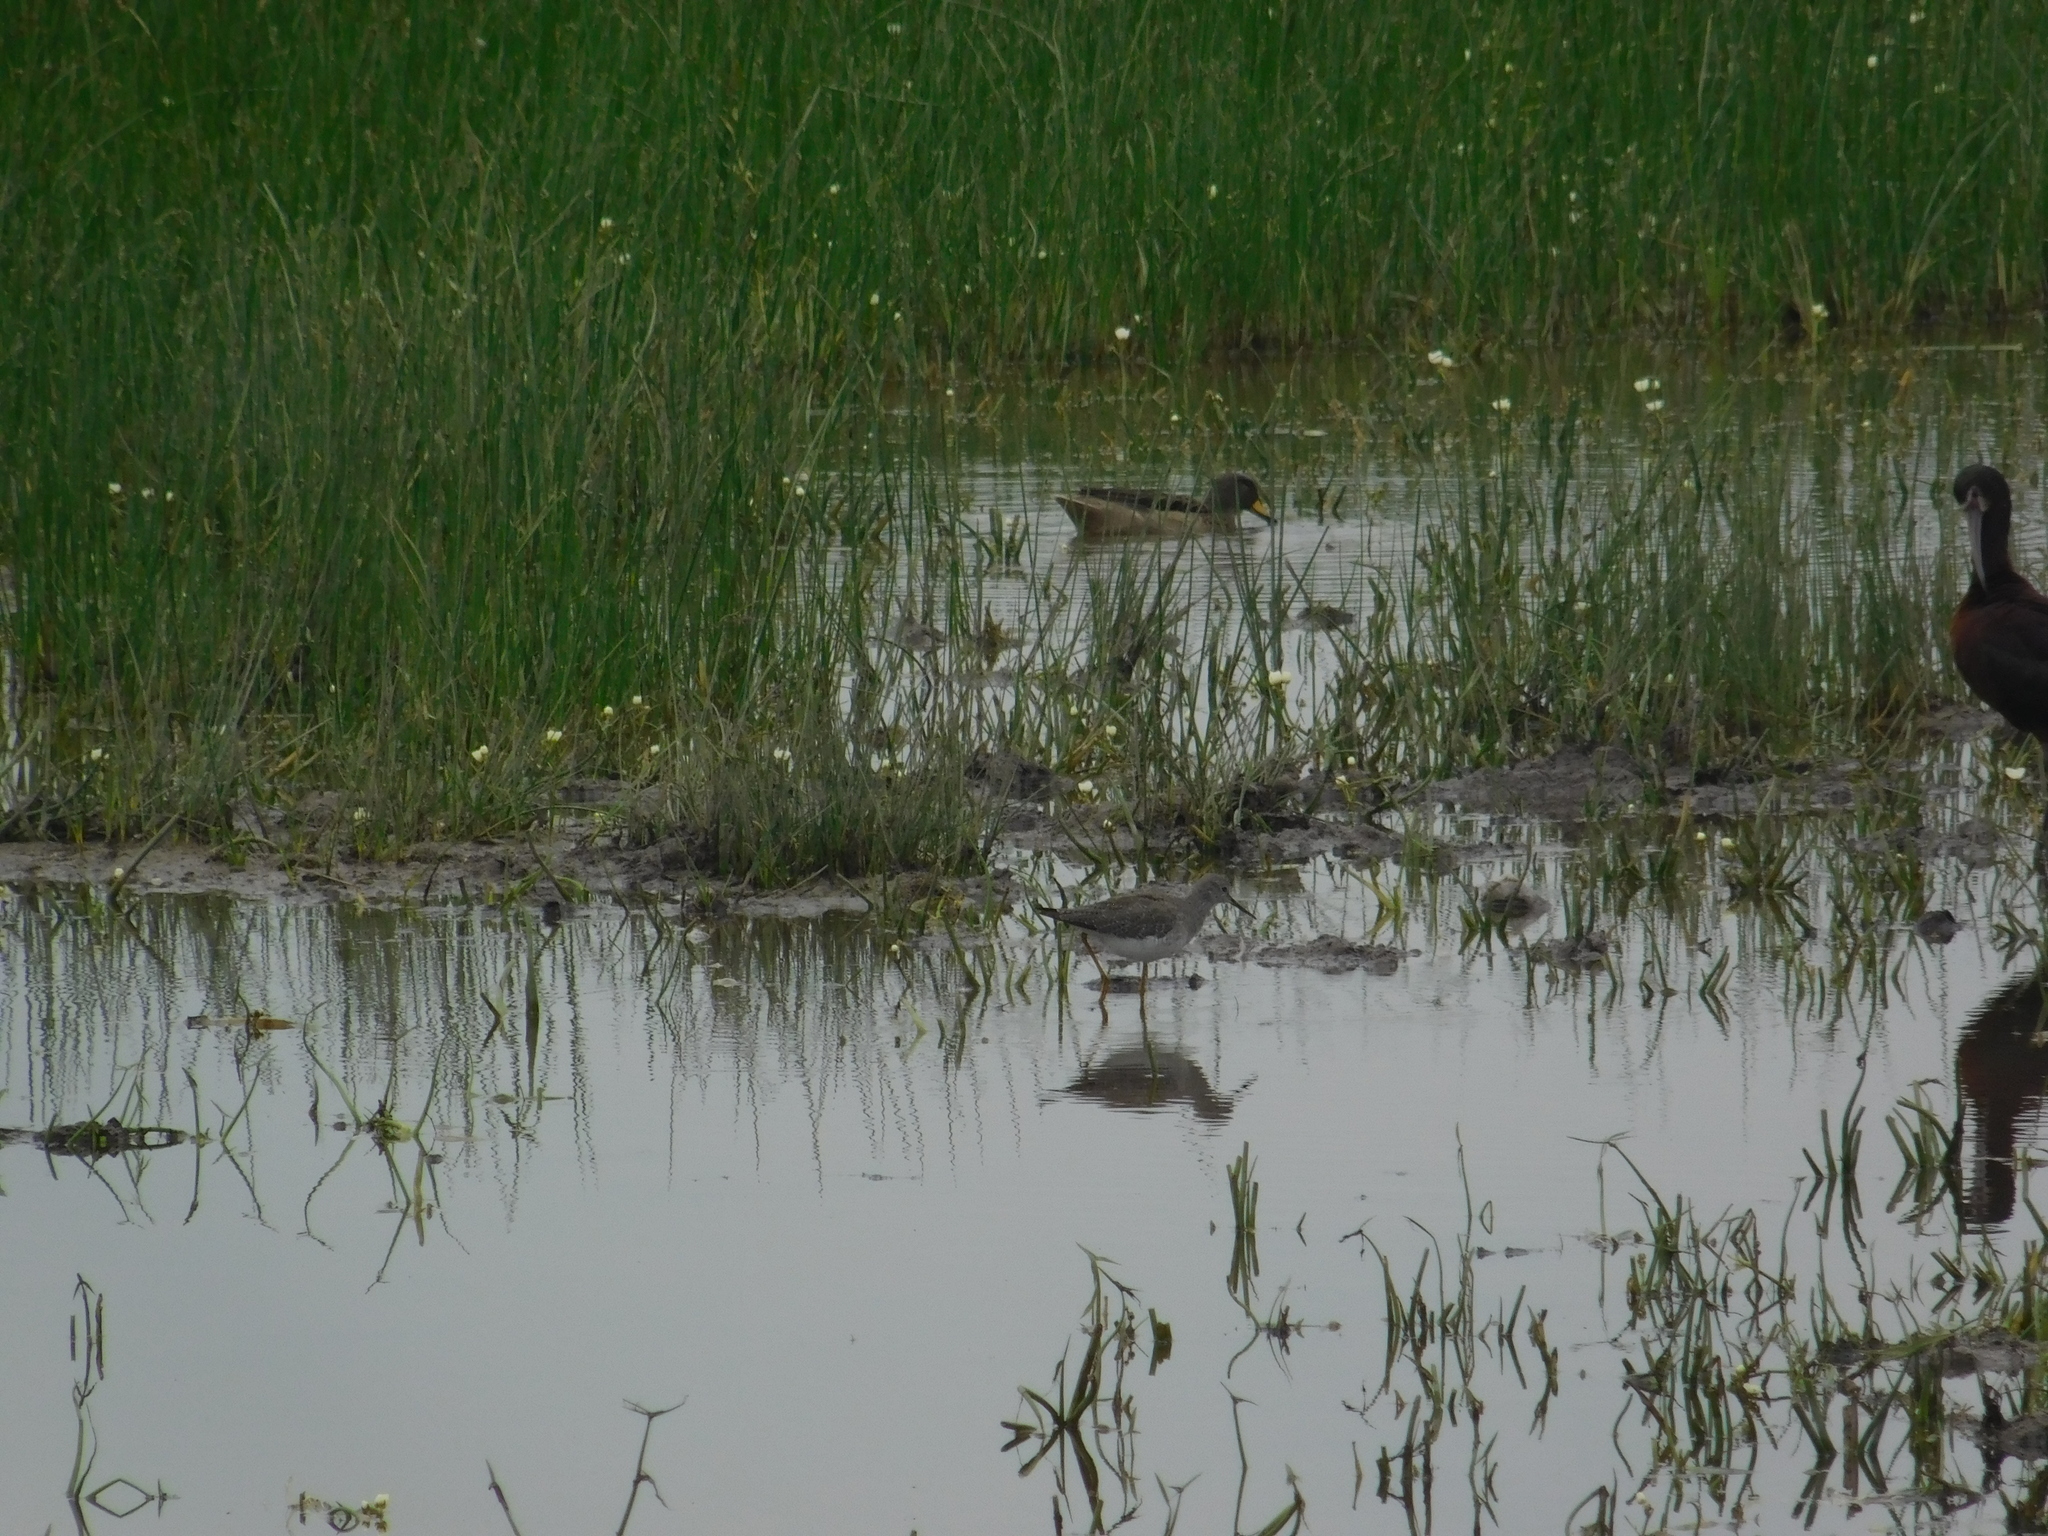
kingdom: Animalia
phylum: Chordata
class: Aves
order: Charadriiformes
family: Scolopacidae
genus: Tringa
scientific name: Tringa flavipes
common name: Lesser yellowlegs
